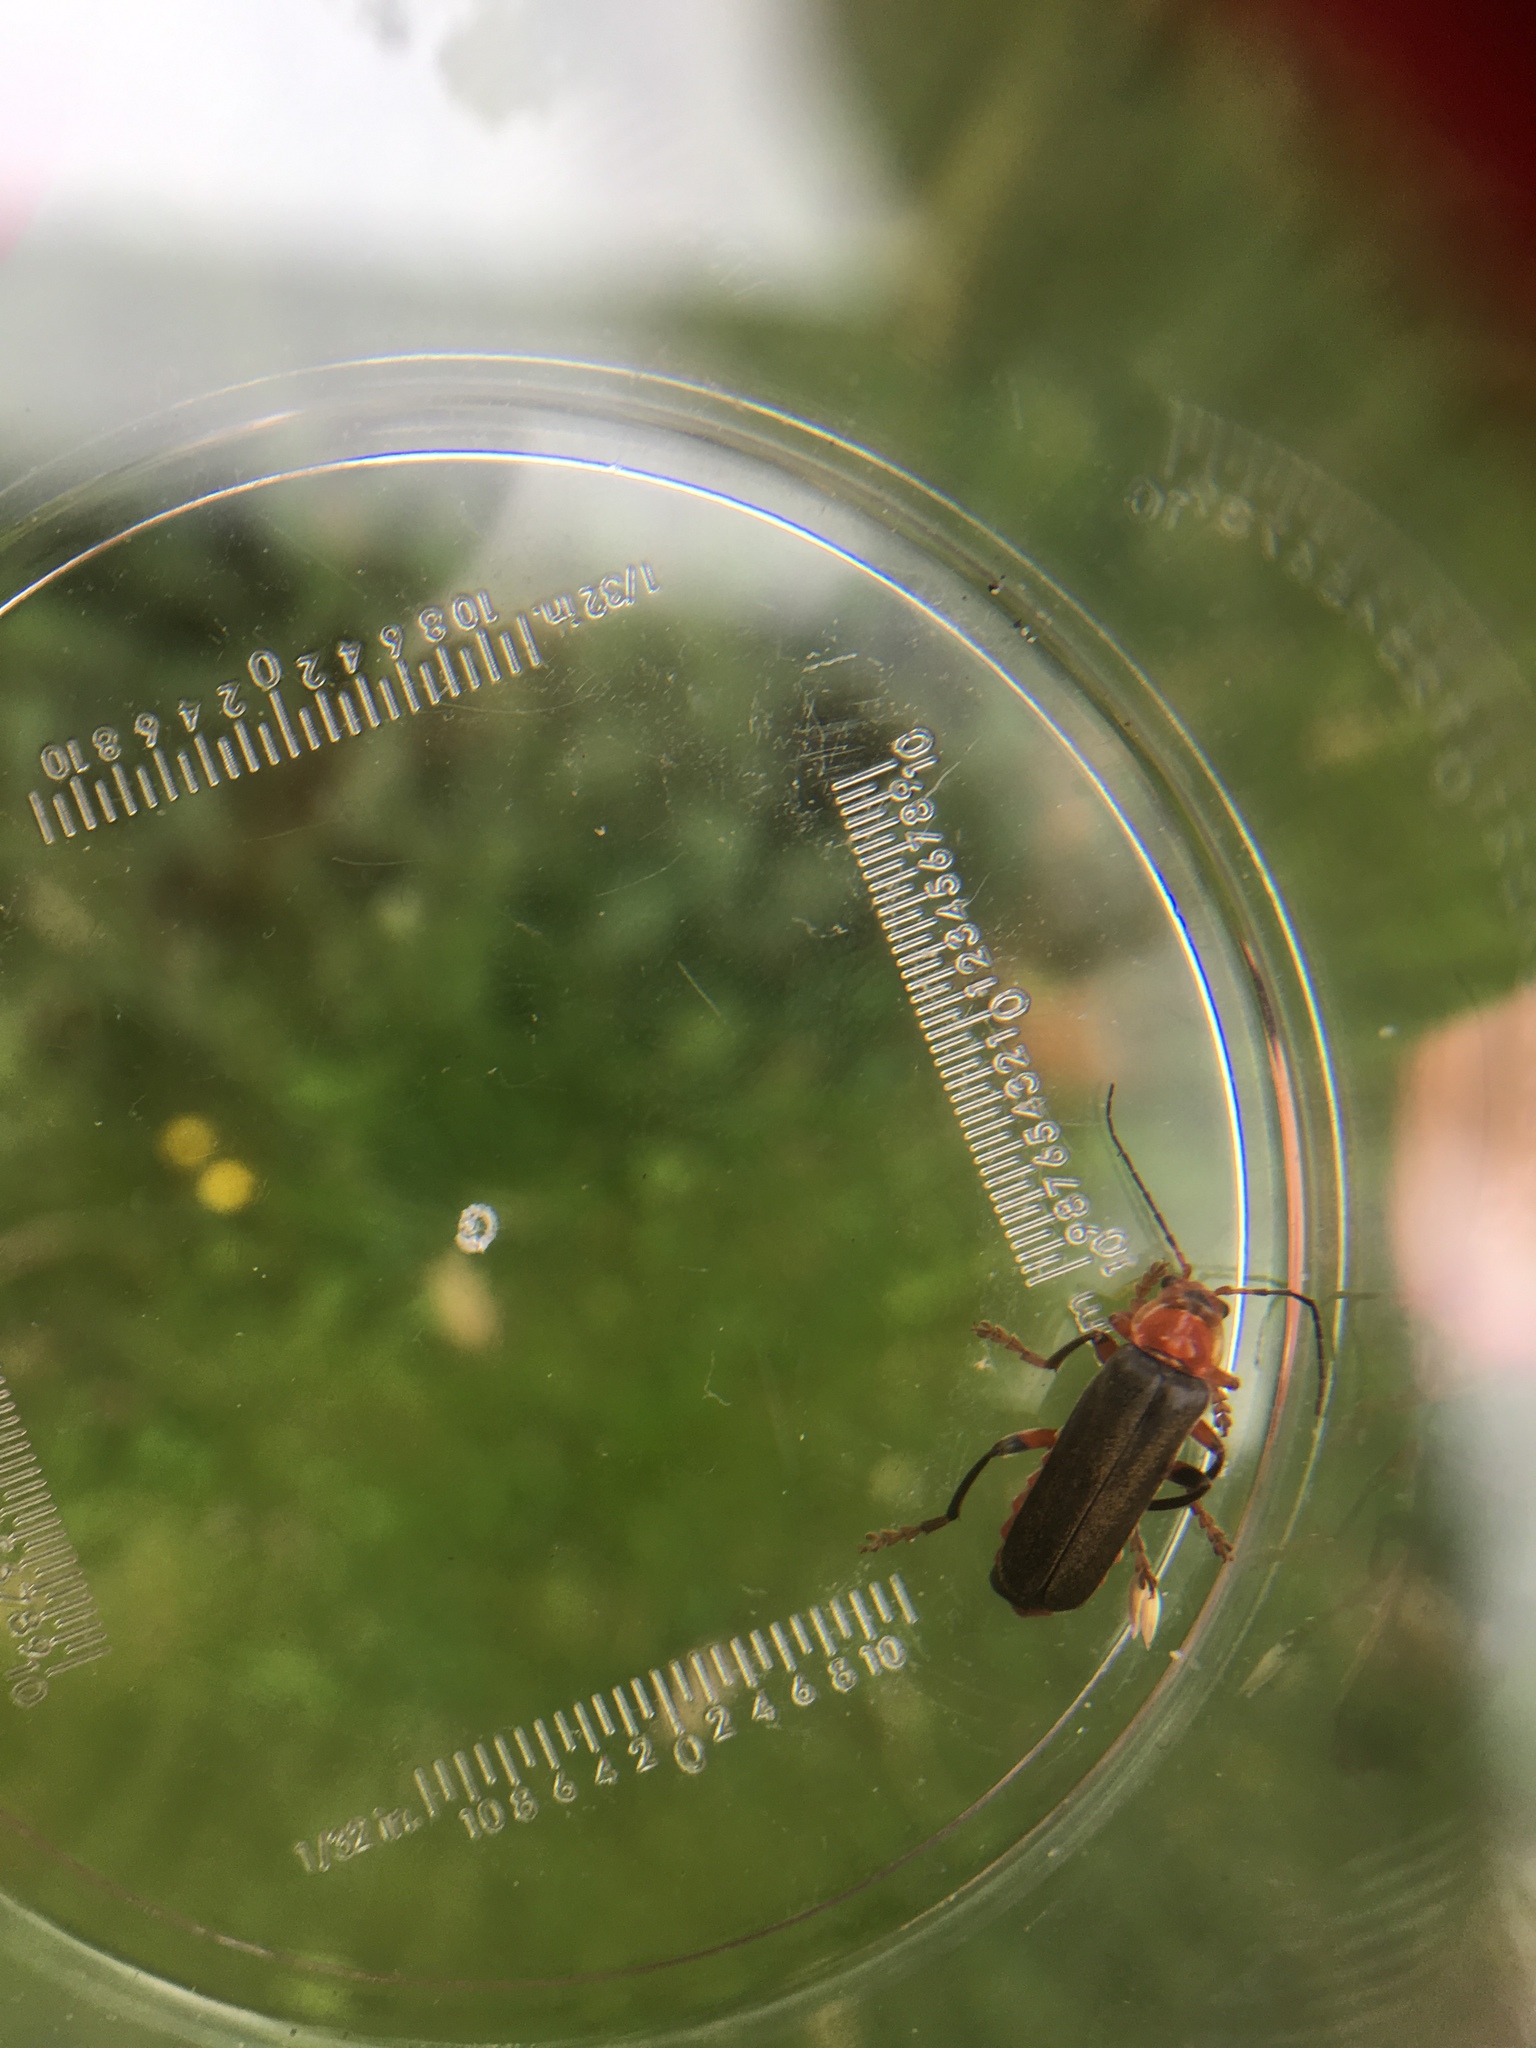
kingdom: Animalia
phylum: Arthropoda
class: Insecta
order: Coleoptera
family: Cantharidae
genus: Cantharis
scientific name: Cantharis livida
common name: Livid soldier beetle
